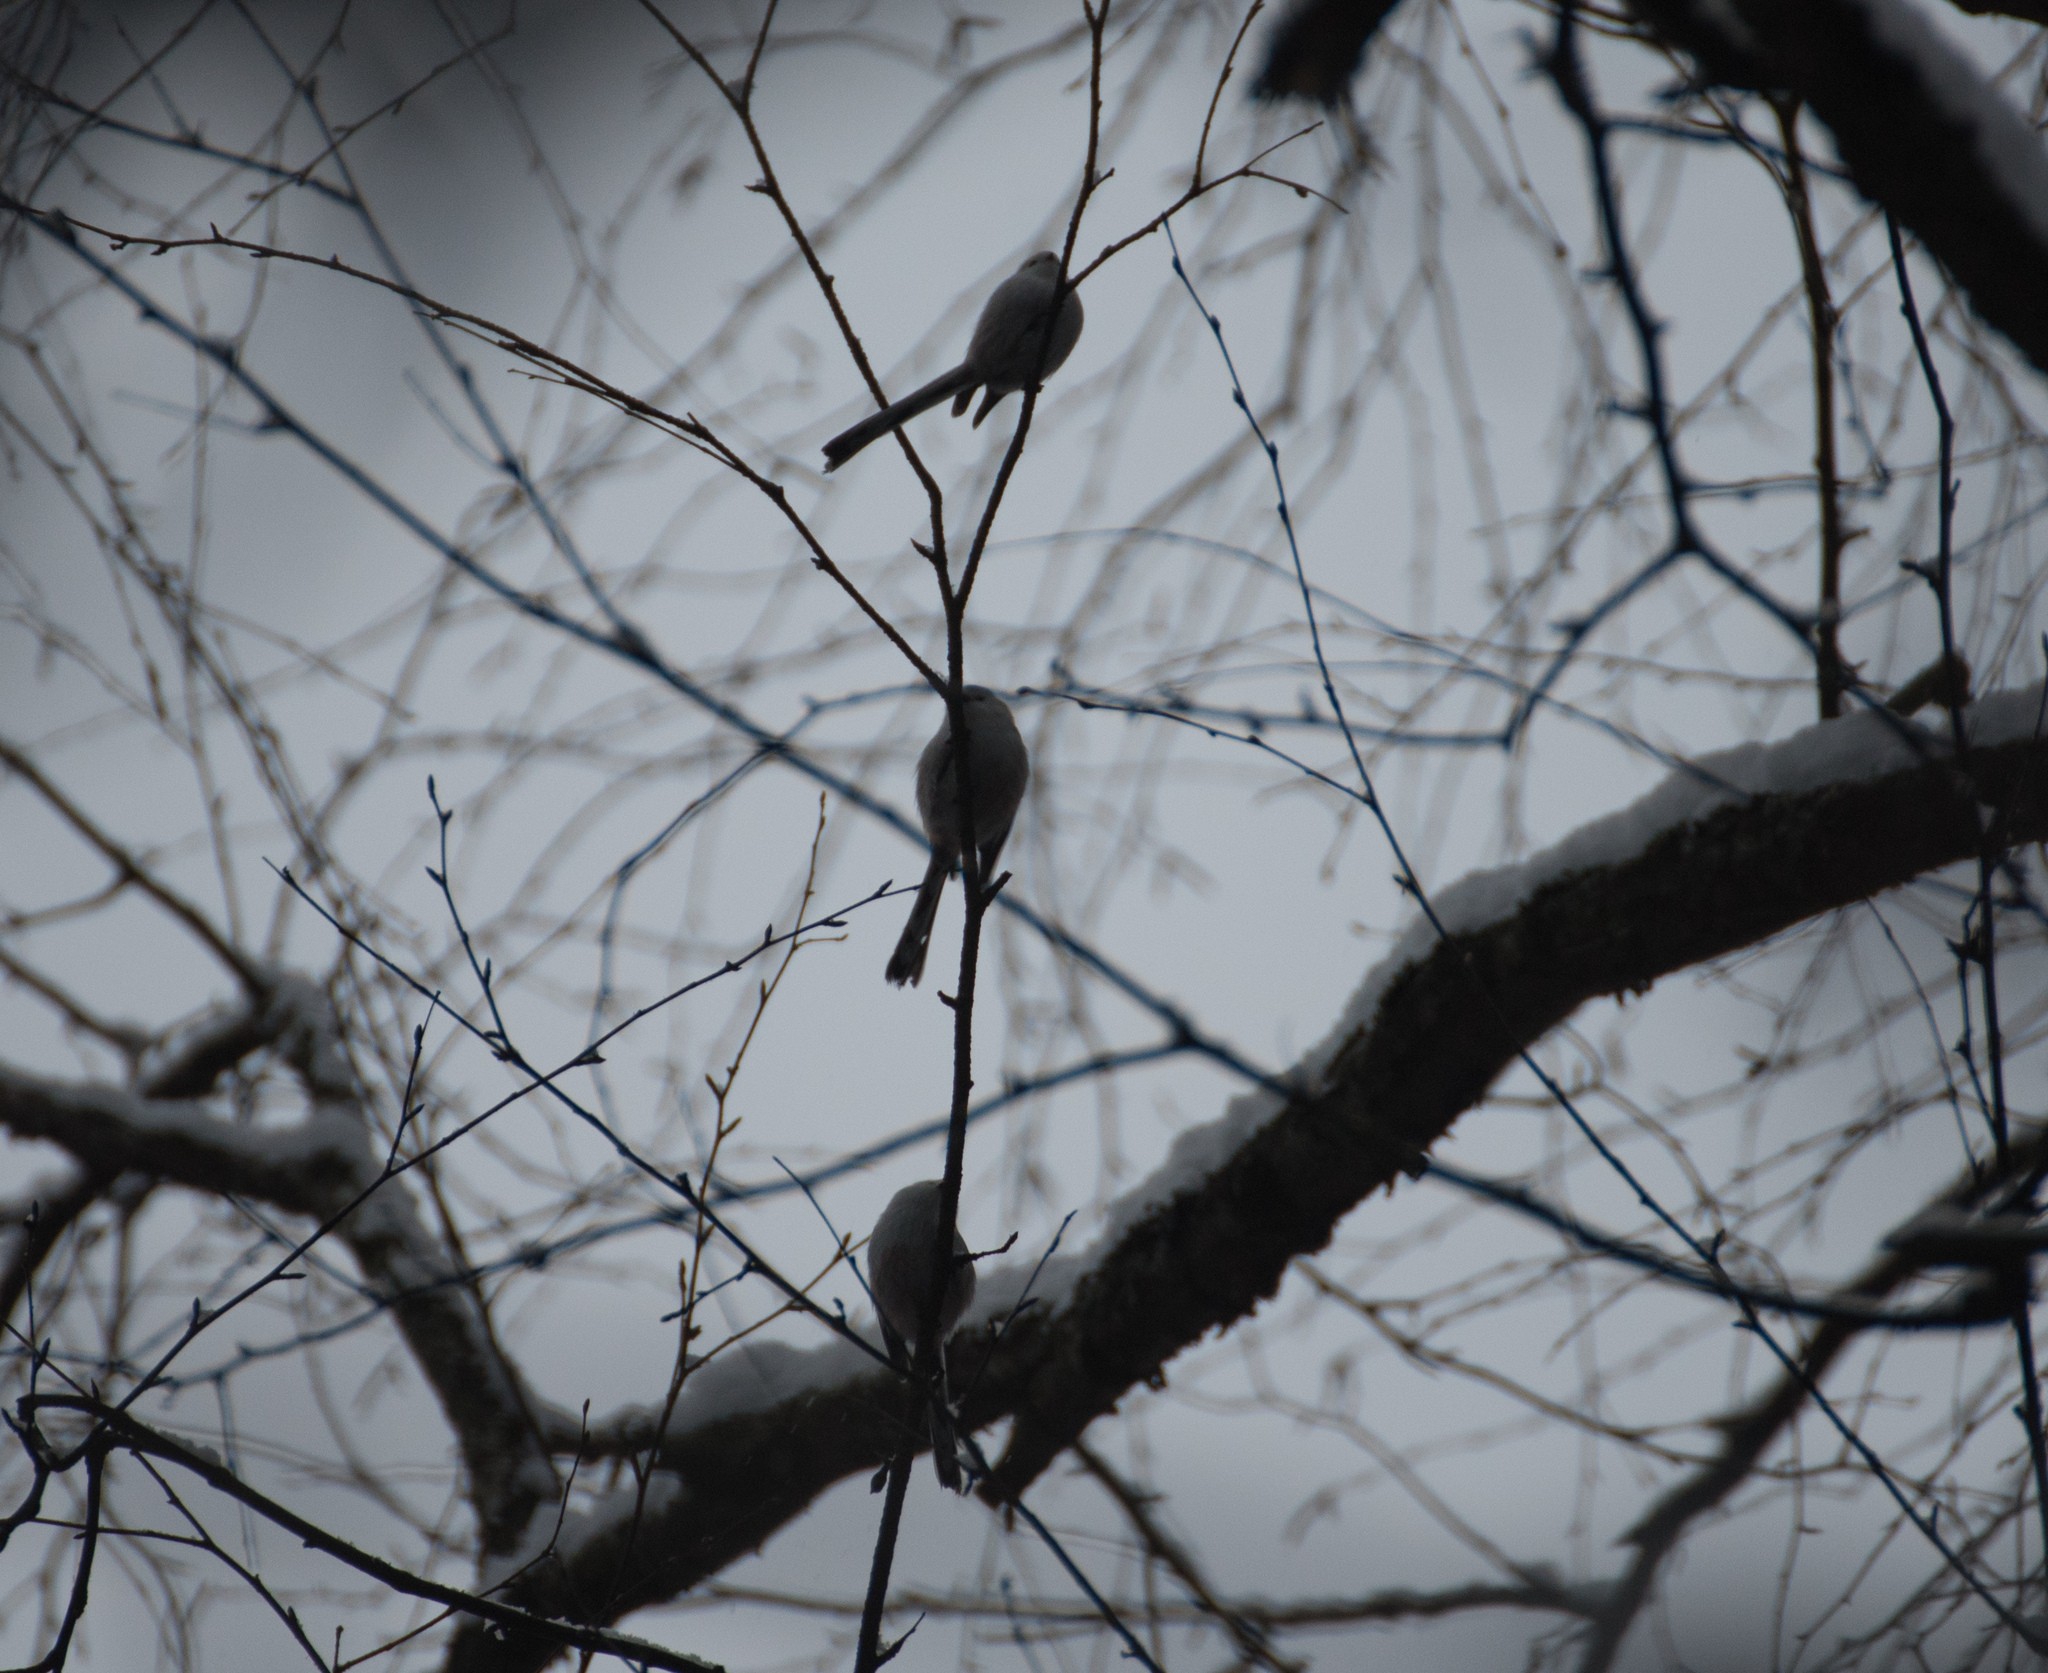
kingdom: Animalia
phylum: Chordata
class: Aves
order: Passeriformes
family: Aegithalidae
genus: Aegithalos
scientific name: Aegithalos caudatus
